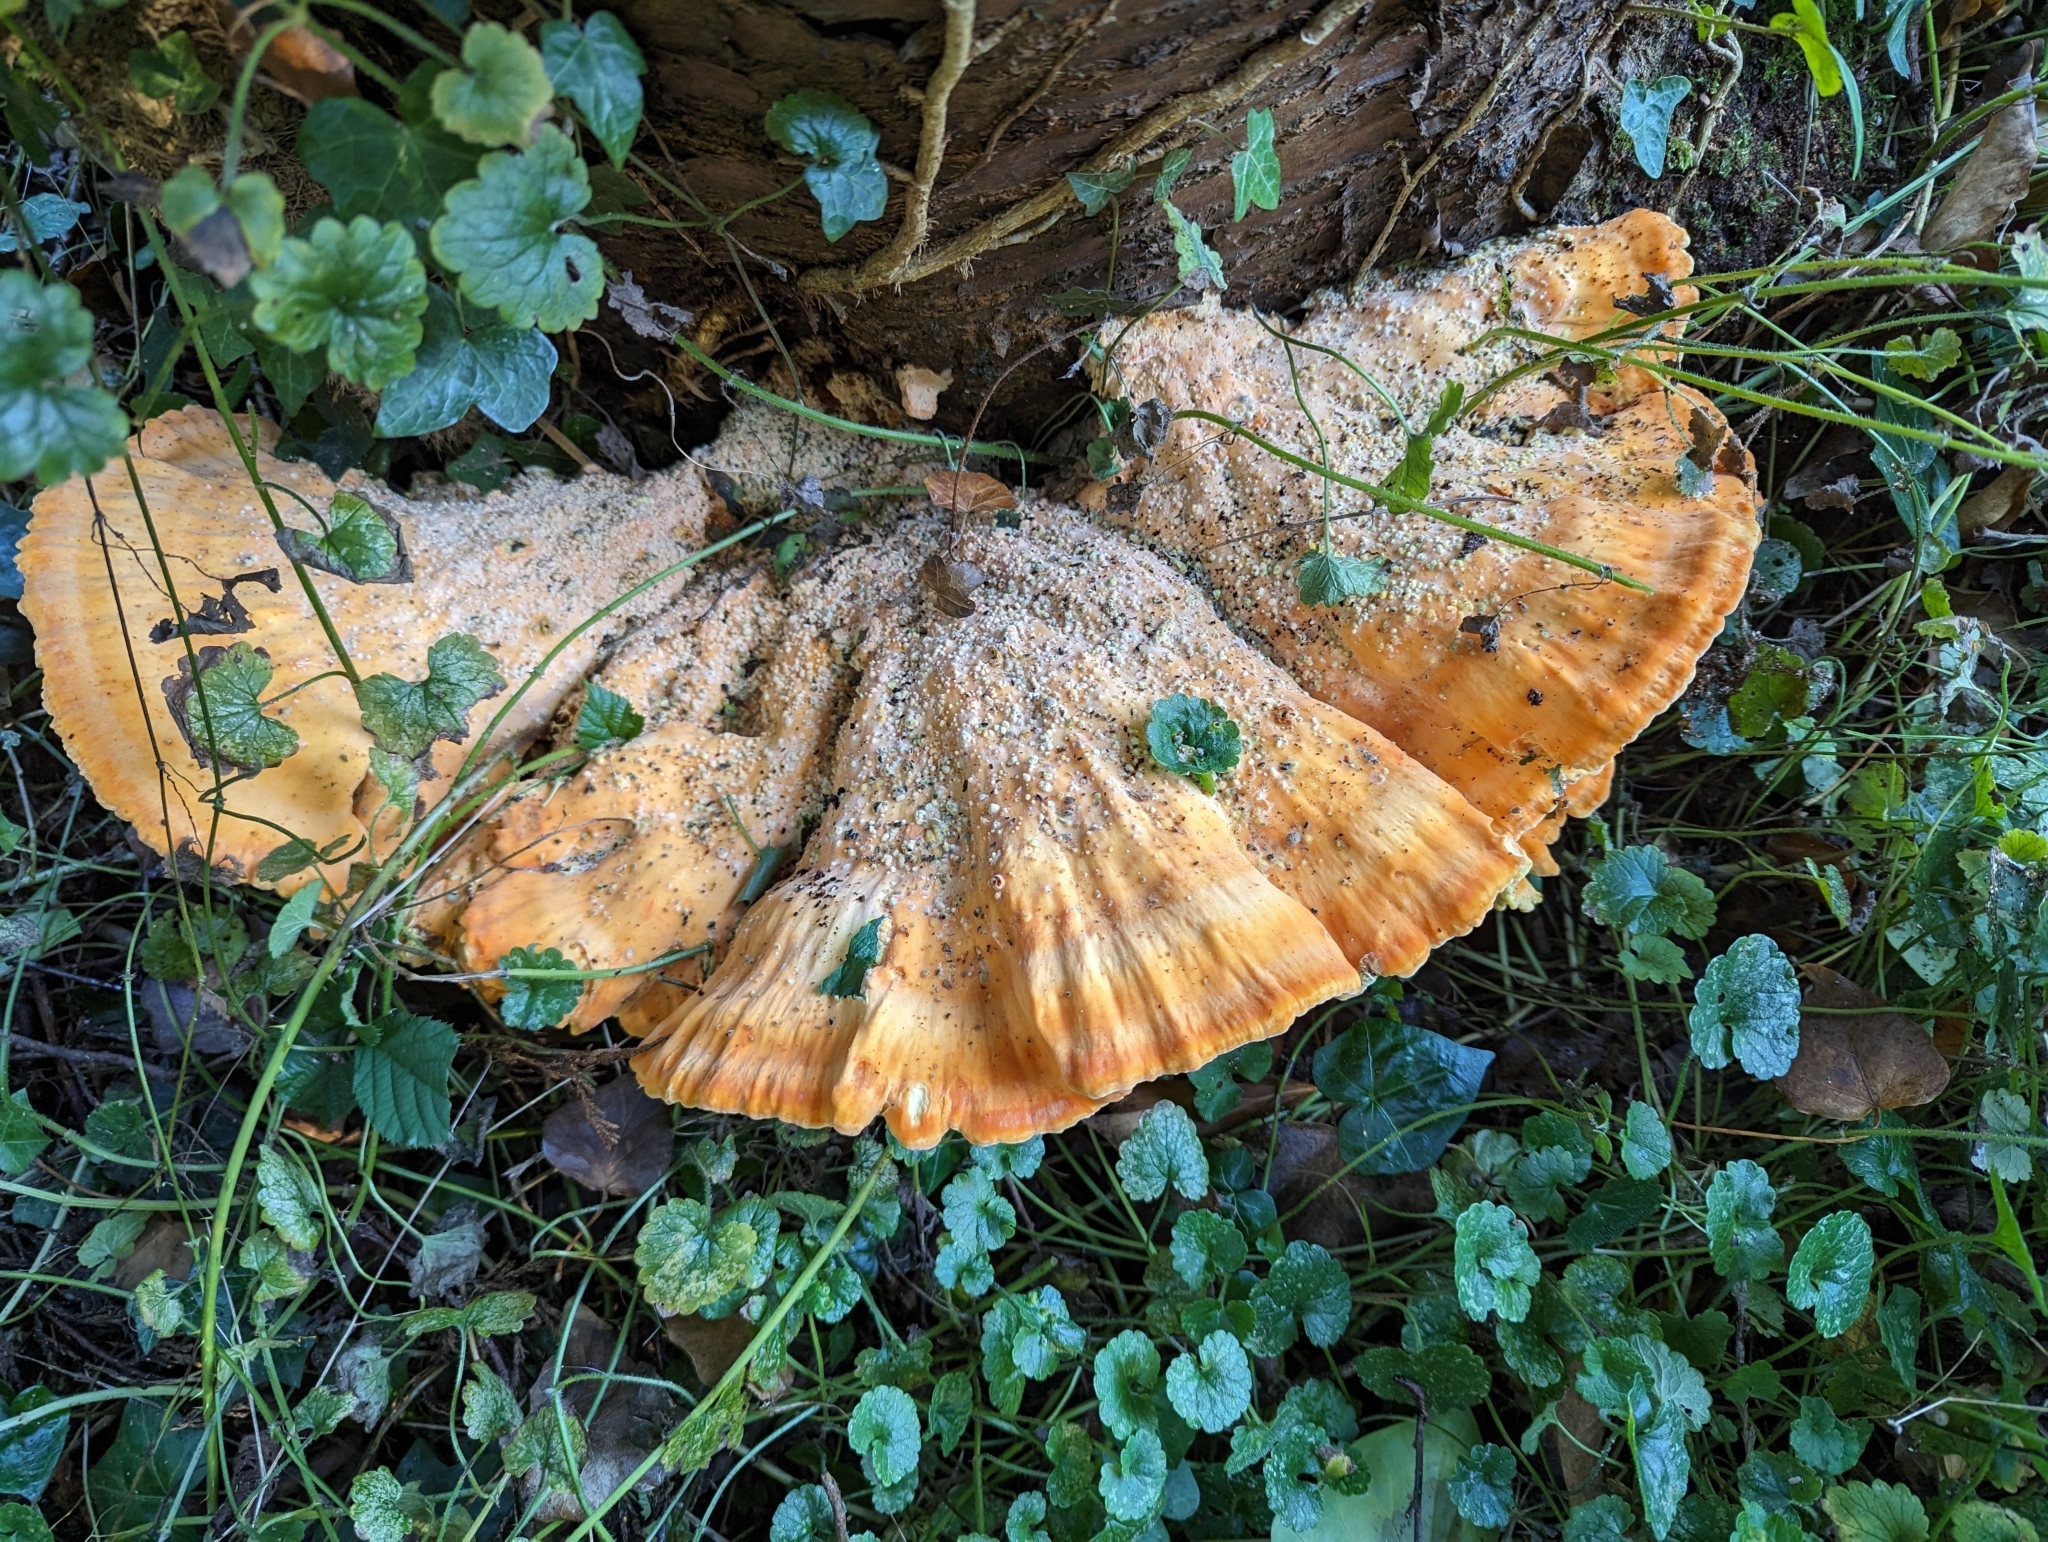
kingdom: Fungi
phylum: Basidiomycota
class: Agaricomycetes
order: Polyporales
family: Laetiporaceae
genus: Laetiporus
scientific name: Laetiporus sulphureus
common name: Chicken of the woods
